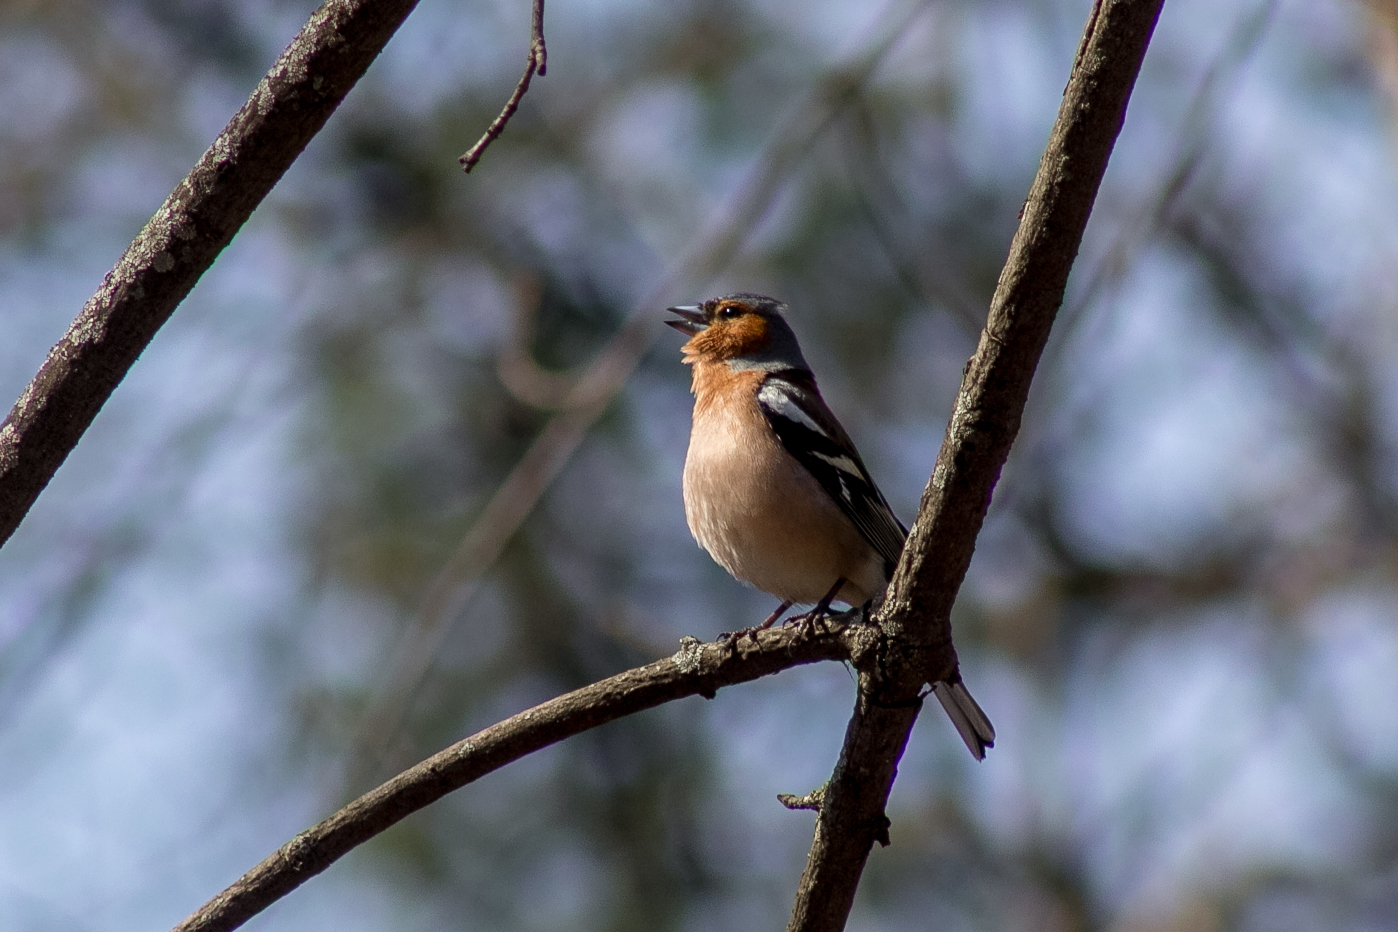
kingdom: Animalia
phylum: Chordata
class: Aves
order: Passeriformes
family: Fringillidae
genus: Fringilla
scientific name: Fringilla coelebs
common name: Common chaffinch
